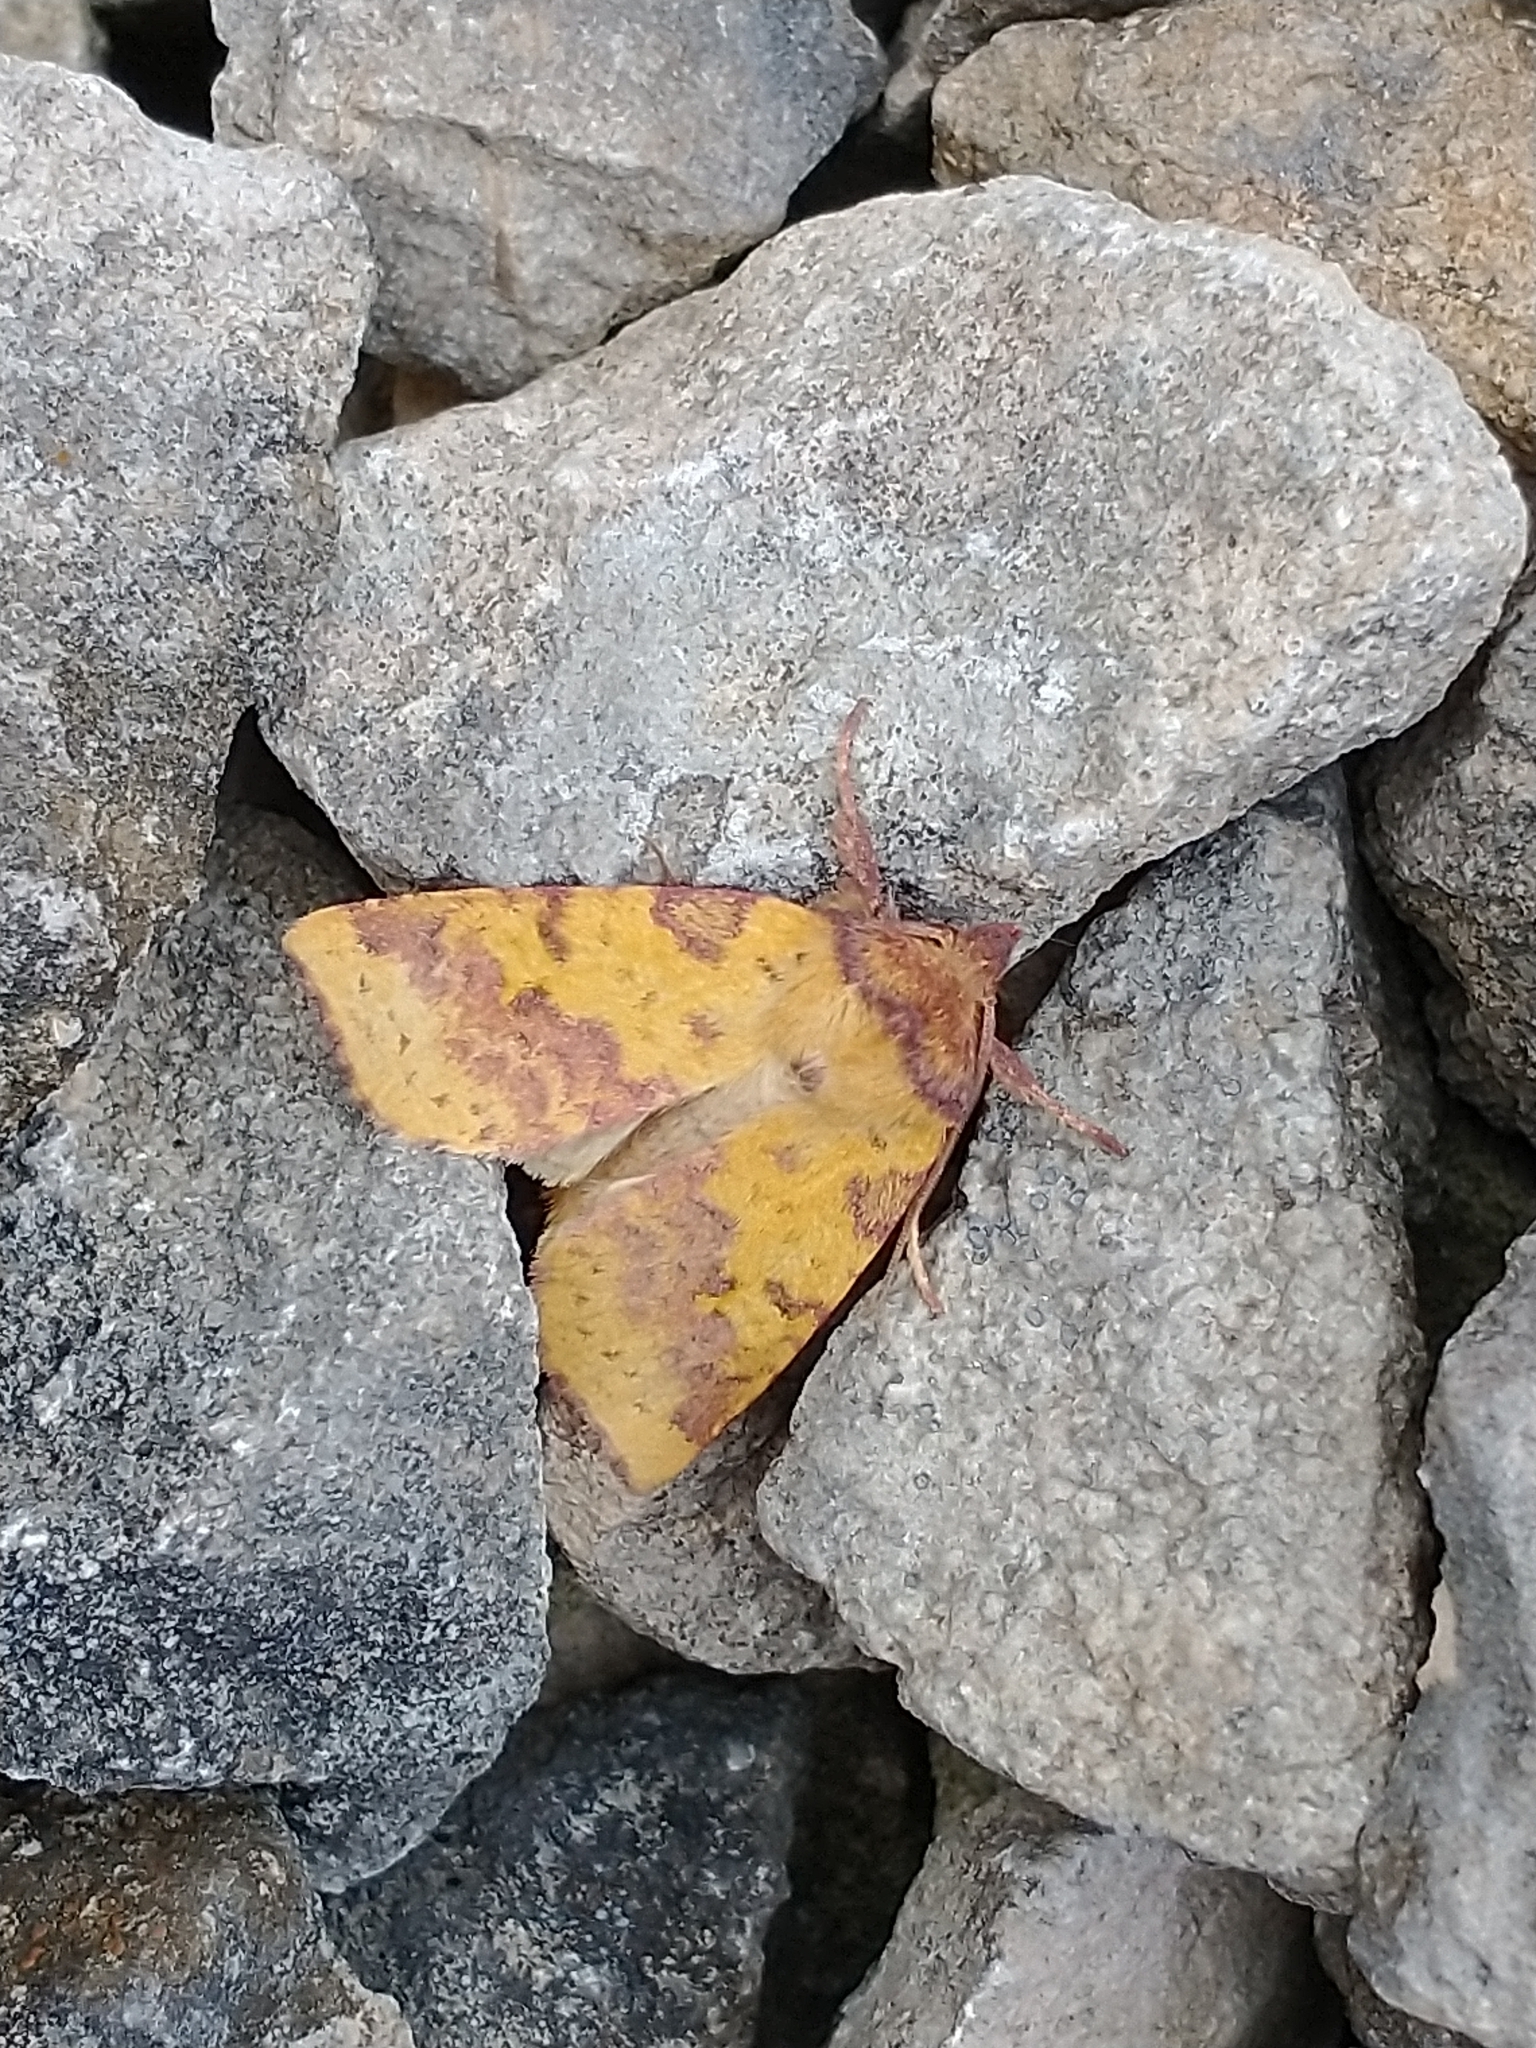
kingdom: Animalia
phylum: Arthropoda
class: Insecta
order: Lepidoptera
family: Noctuidae
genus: Xanthia
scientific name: Xanthia togata
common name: Pink-barred sallow
